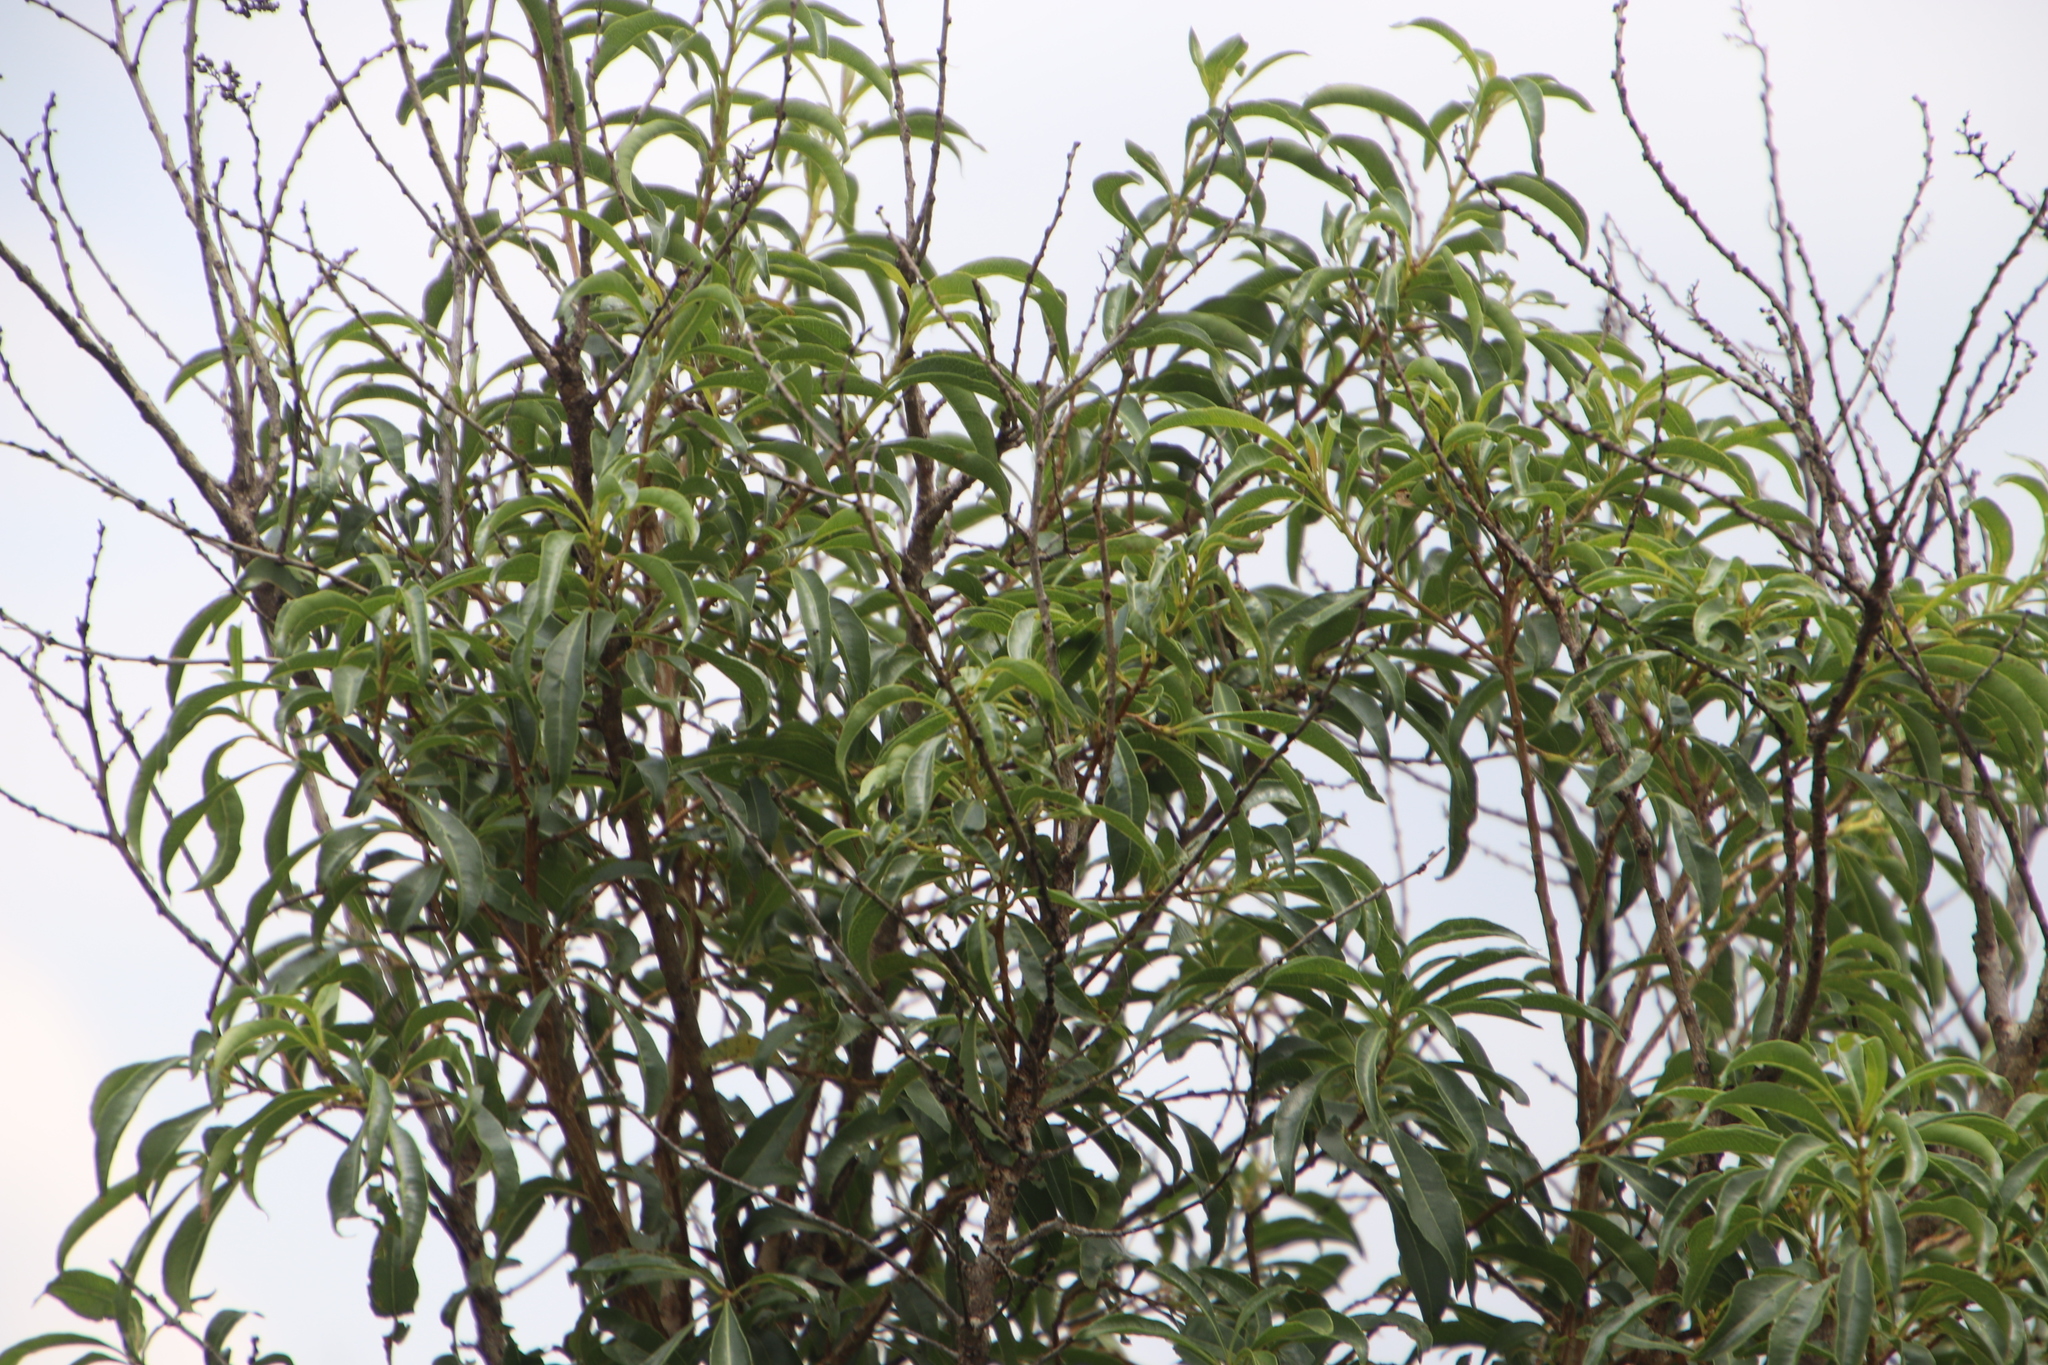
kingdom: Plantae
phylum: Tracheophyta
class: Magnoliopsida
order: Myrtales
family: Myrtaceae
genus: Heteropyxis
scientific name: Heteropyxis natalensis
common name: Lavender tree
